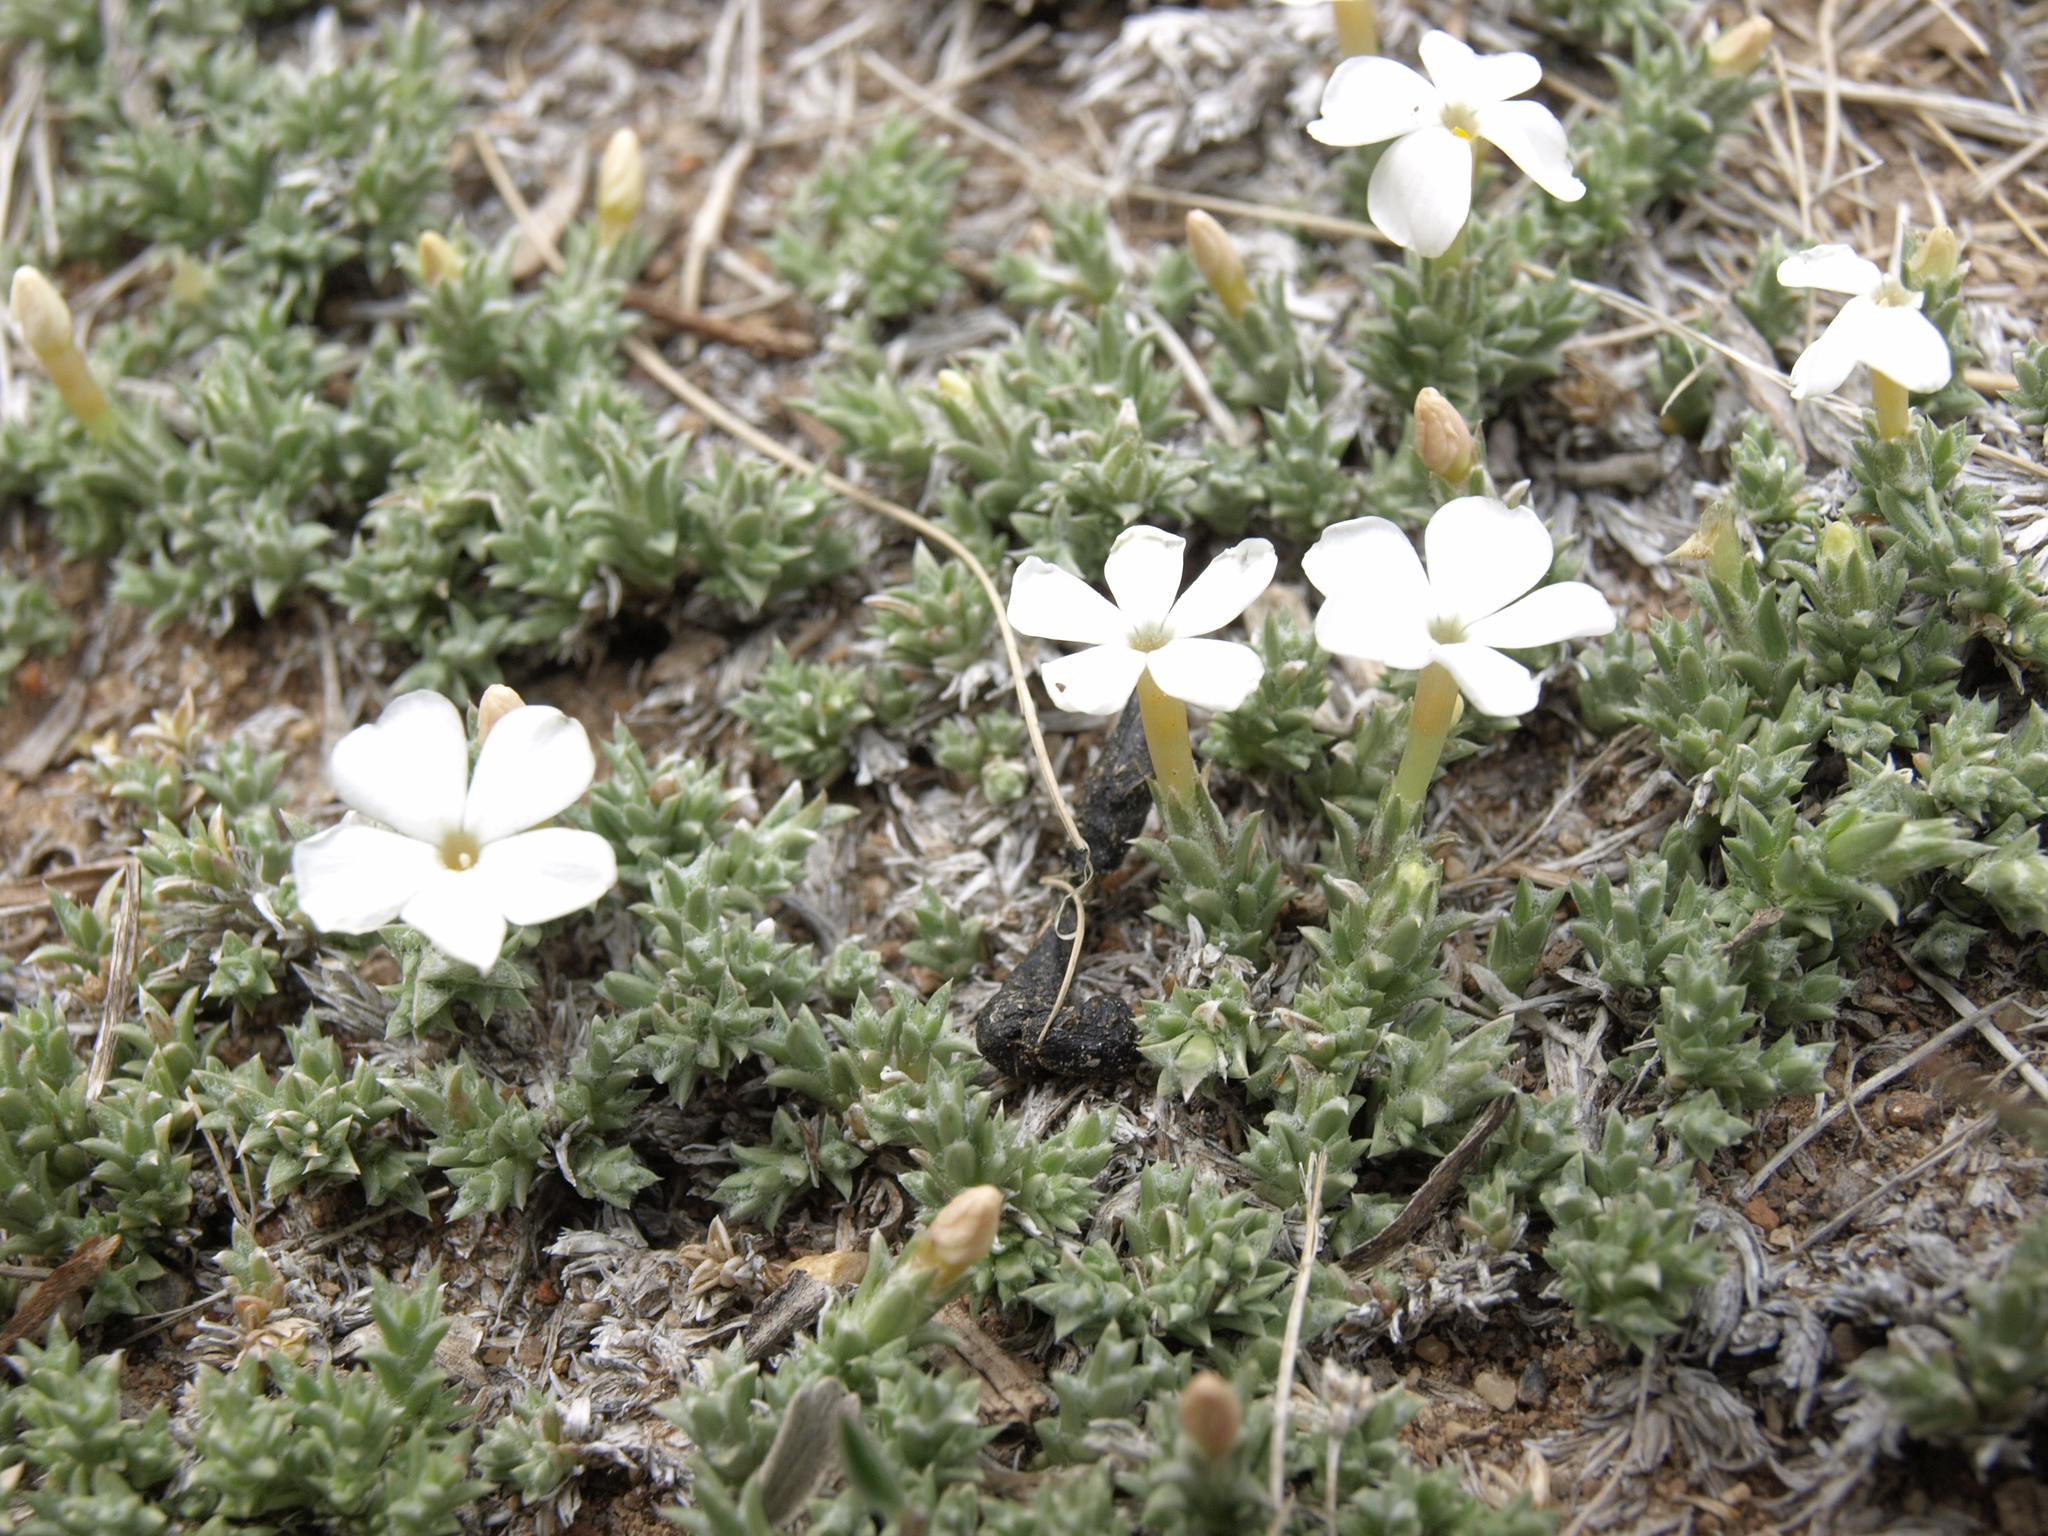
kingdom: Plantae
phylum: Tracheophyta
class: Magnoliopsida
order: Ericales
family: Polemoniaceae
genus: Phlox
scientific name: Phlox hoodii
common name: Moss phlox
